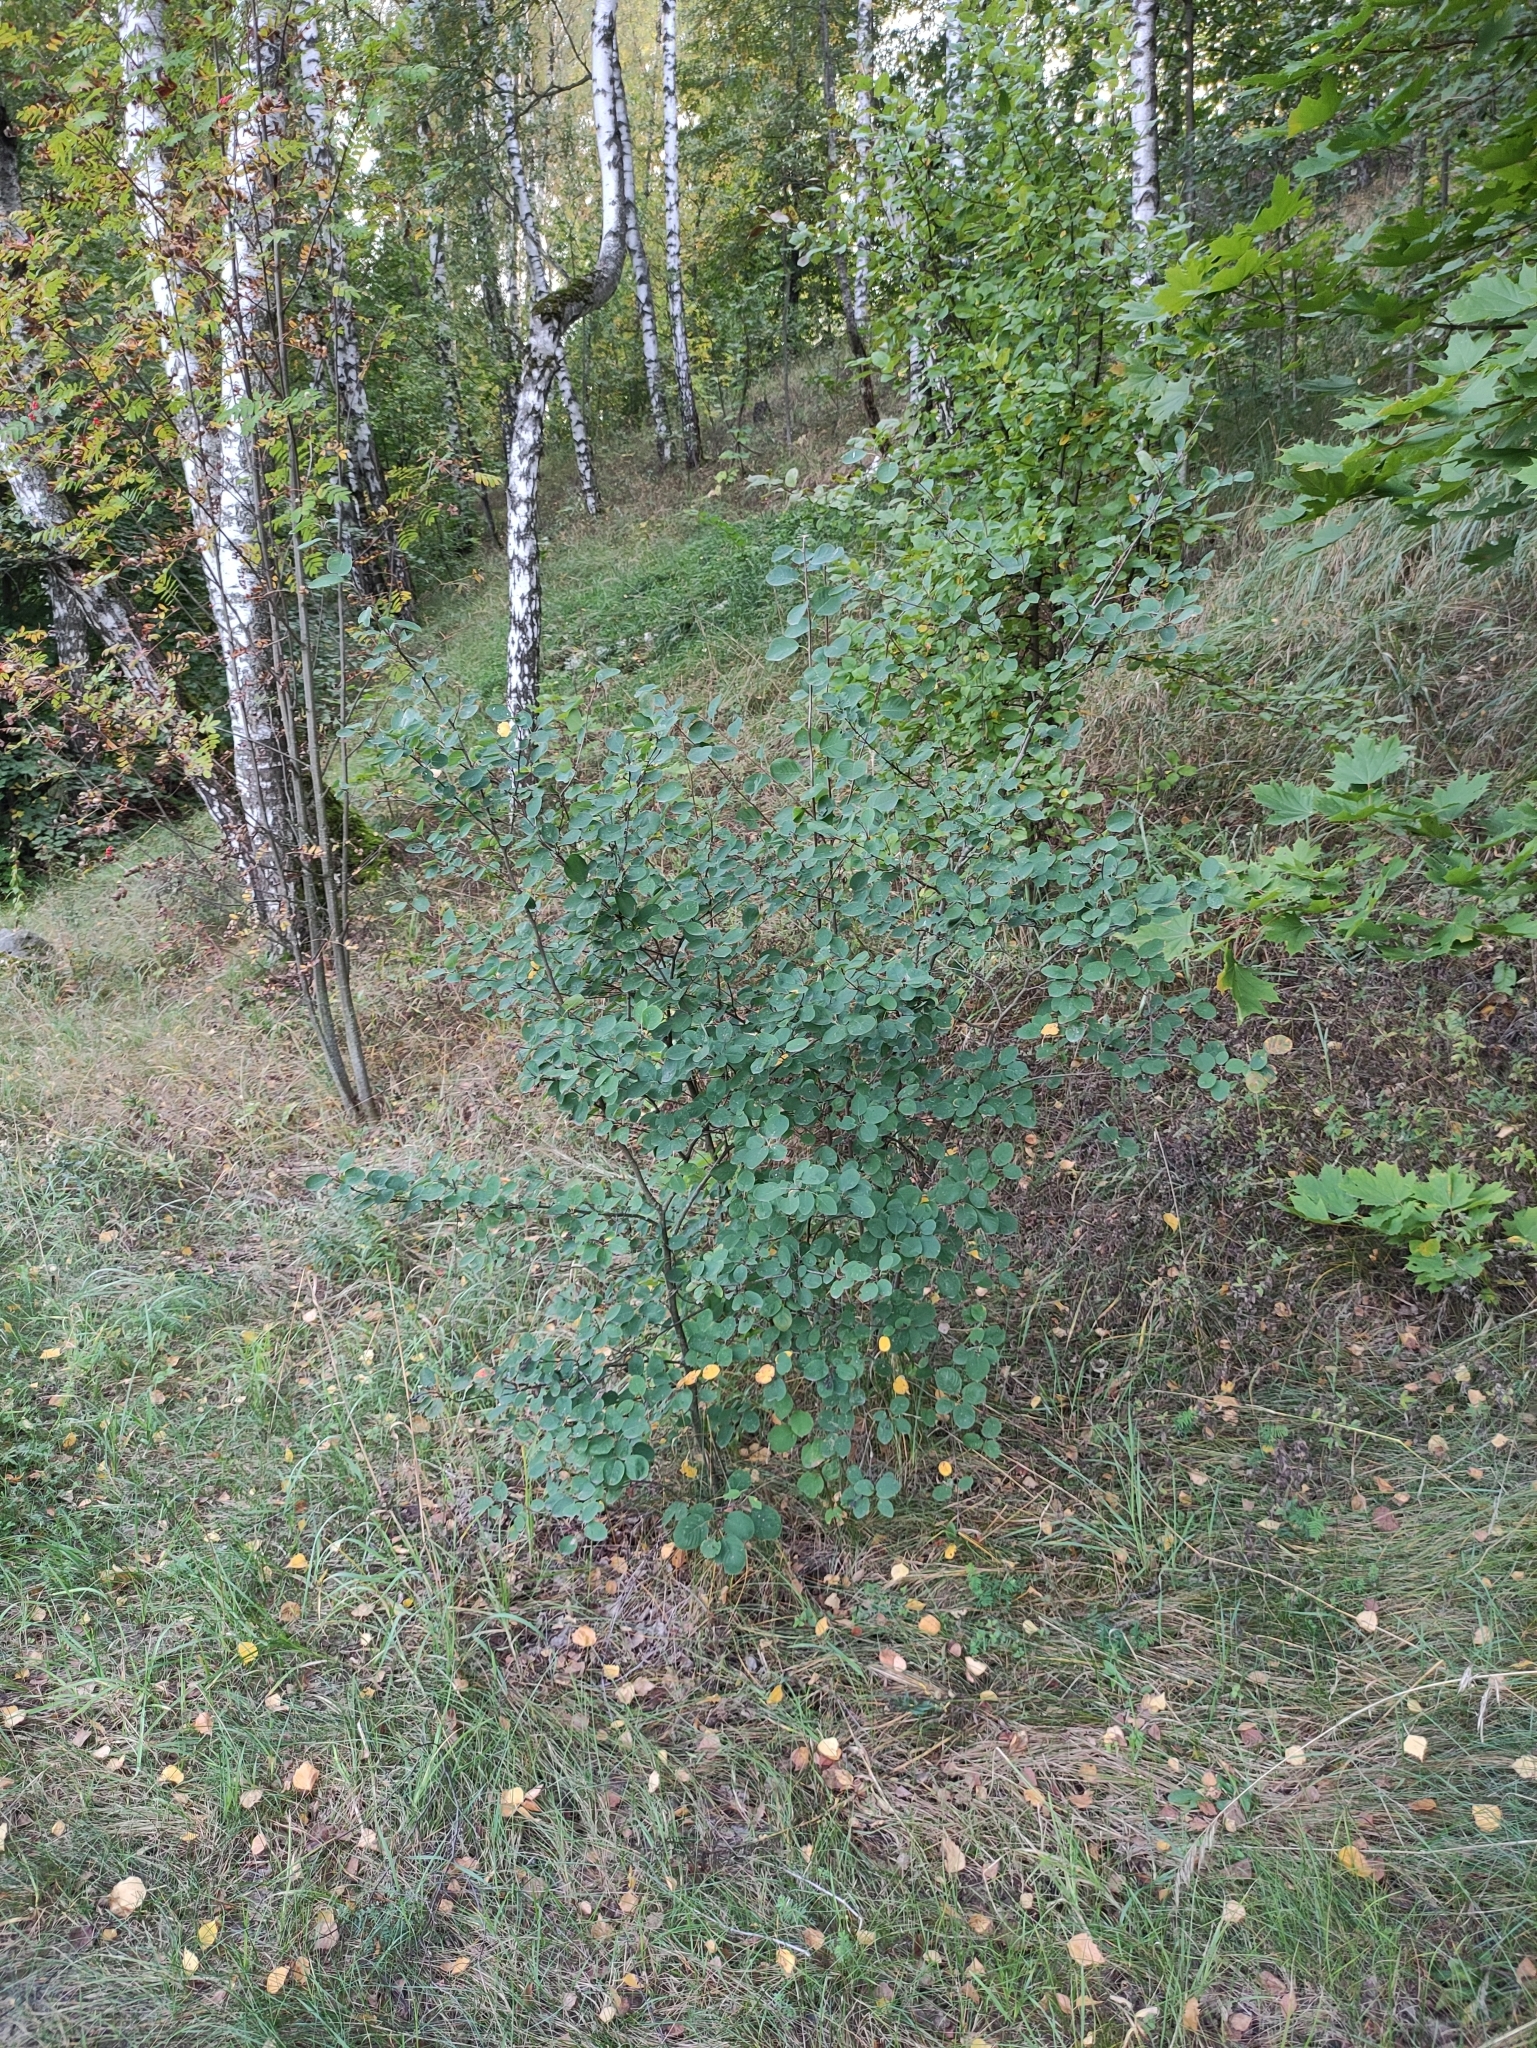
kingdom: Plantae
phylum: Tracheophyta
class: Magnoliopsida
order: Rosales
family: Rosaceae
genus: Amelanchier
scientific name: Amelanchier
